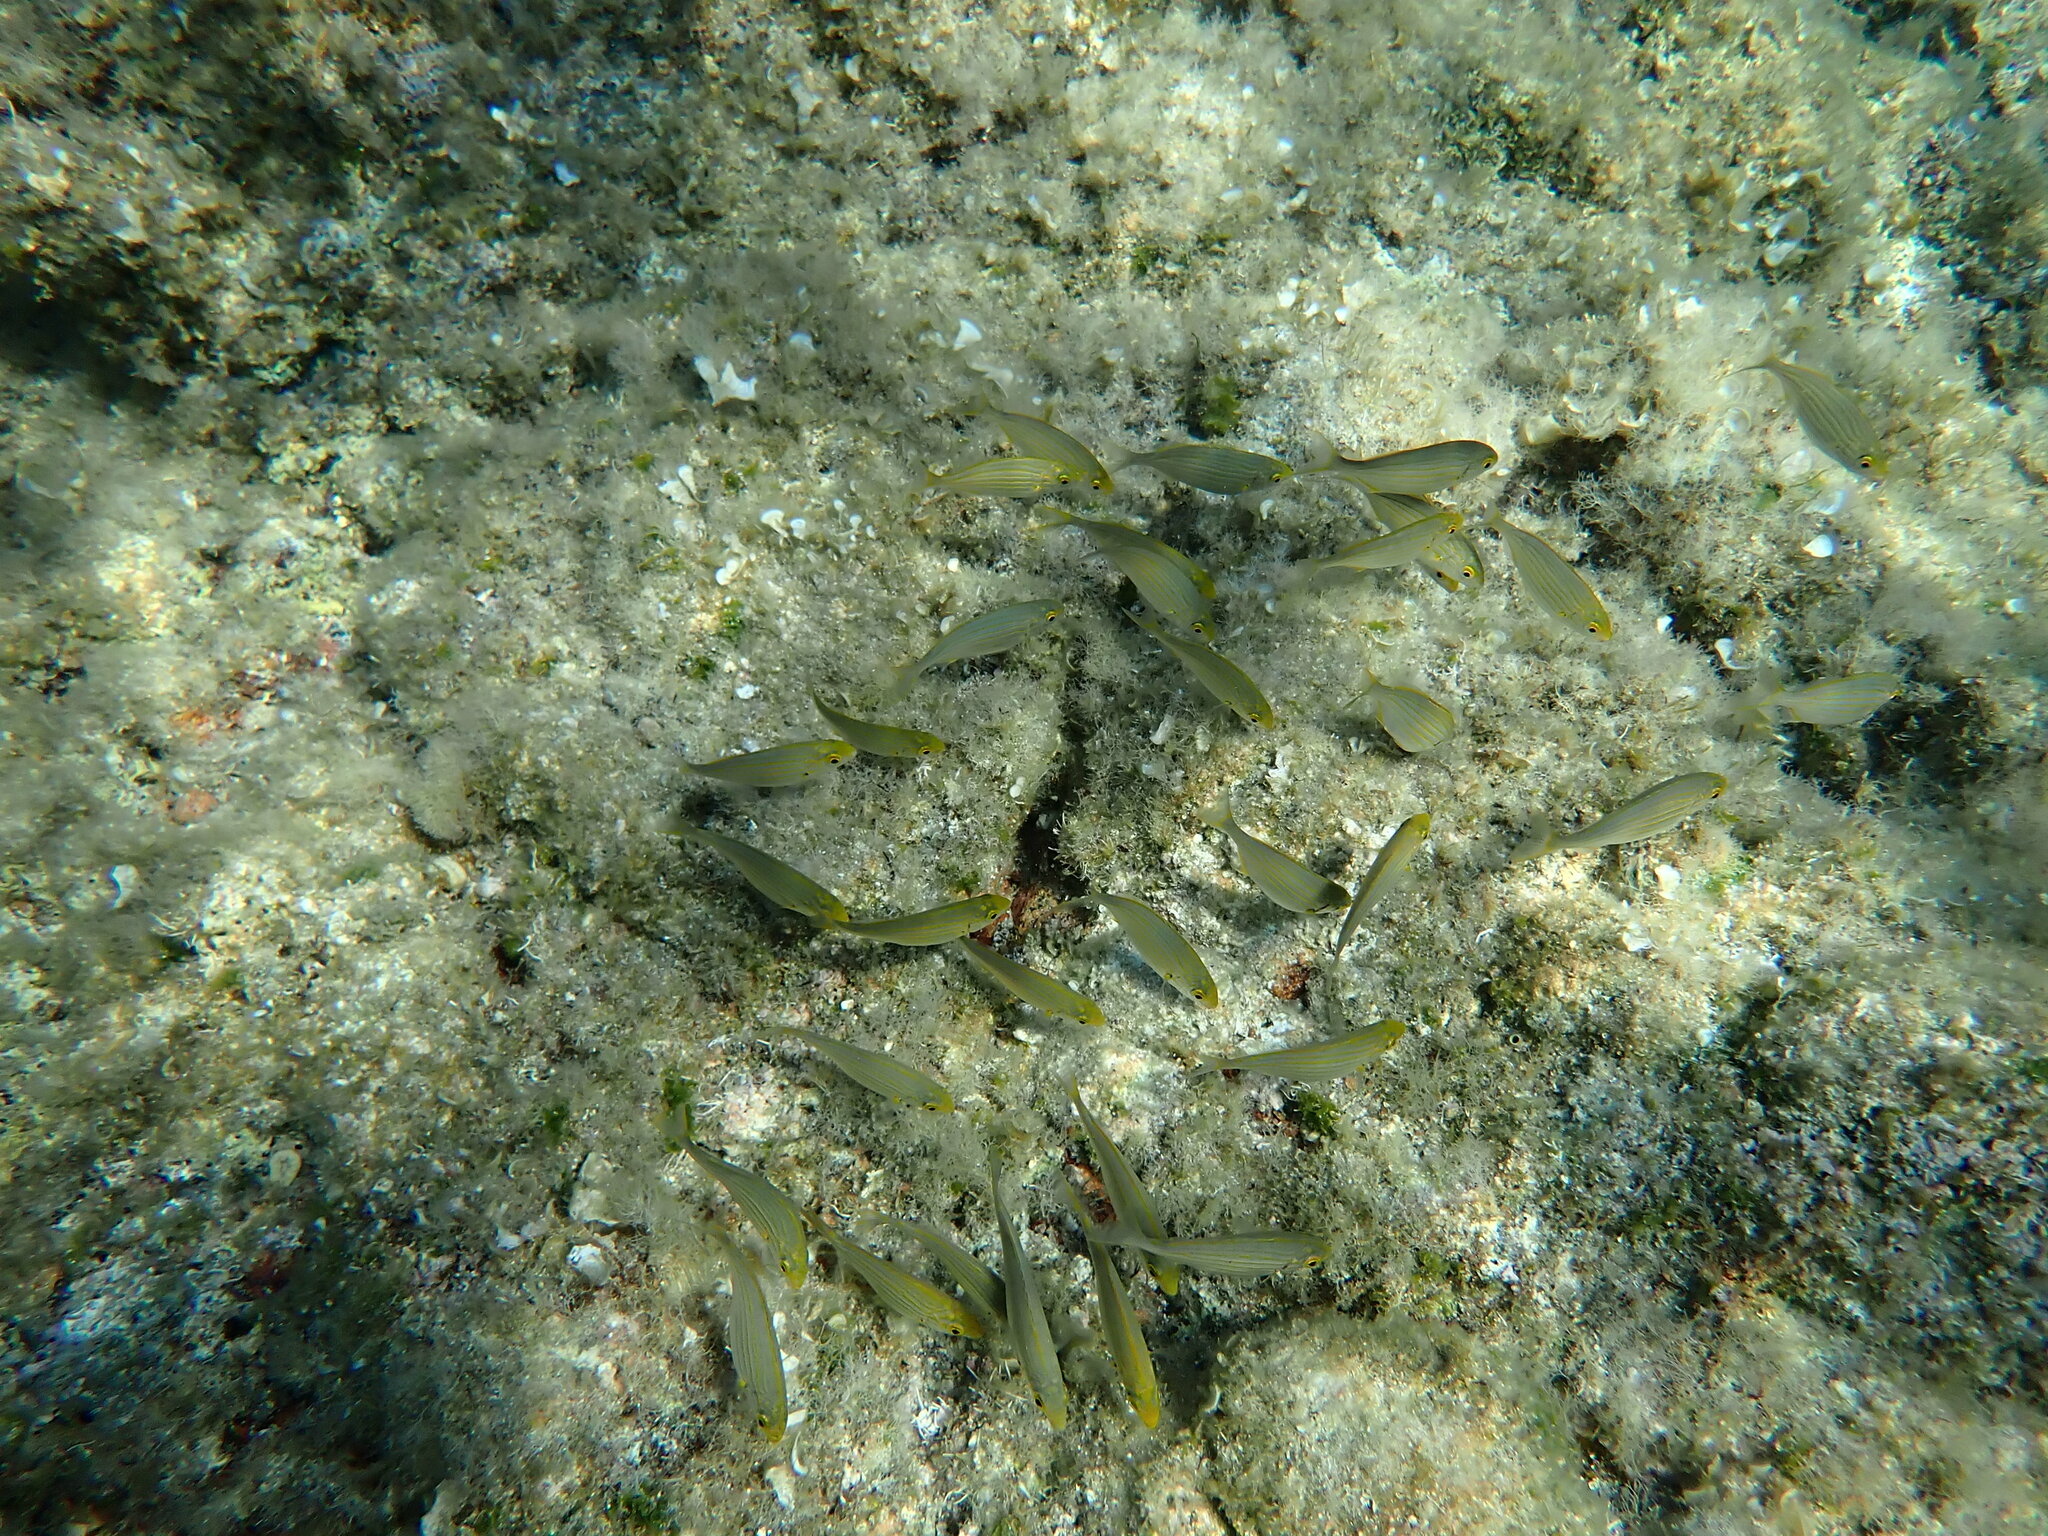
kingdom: Animalia
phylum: Chordata
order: Perciformes
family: Sparidae
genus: Sarpa
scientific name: Sarpa salpa
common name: Salema
